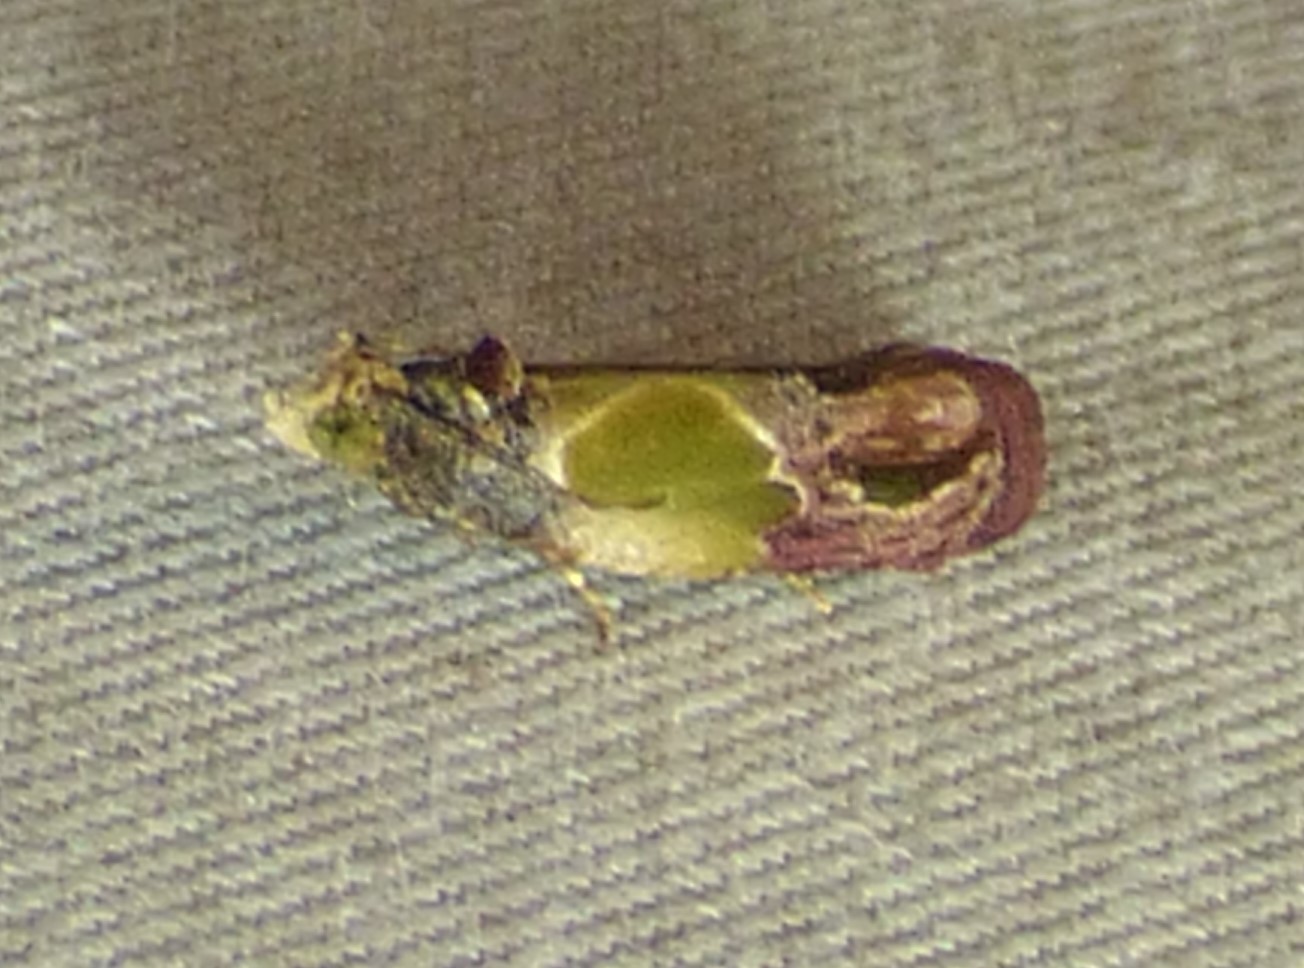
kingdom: Animalia
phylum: Arthropoda
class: Insecta
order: Lepidoptera
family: Tortricidae
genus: Eumarozia
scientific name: Eumarozia malachitana
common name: Sculptured moth
